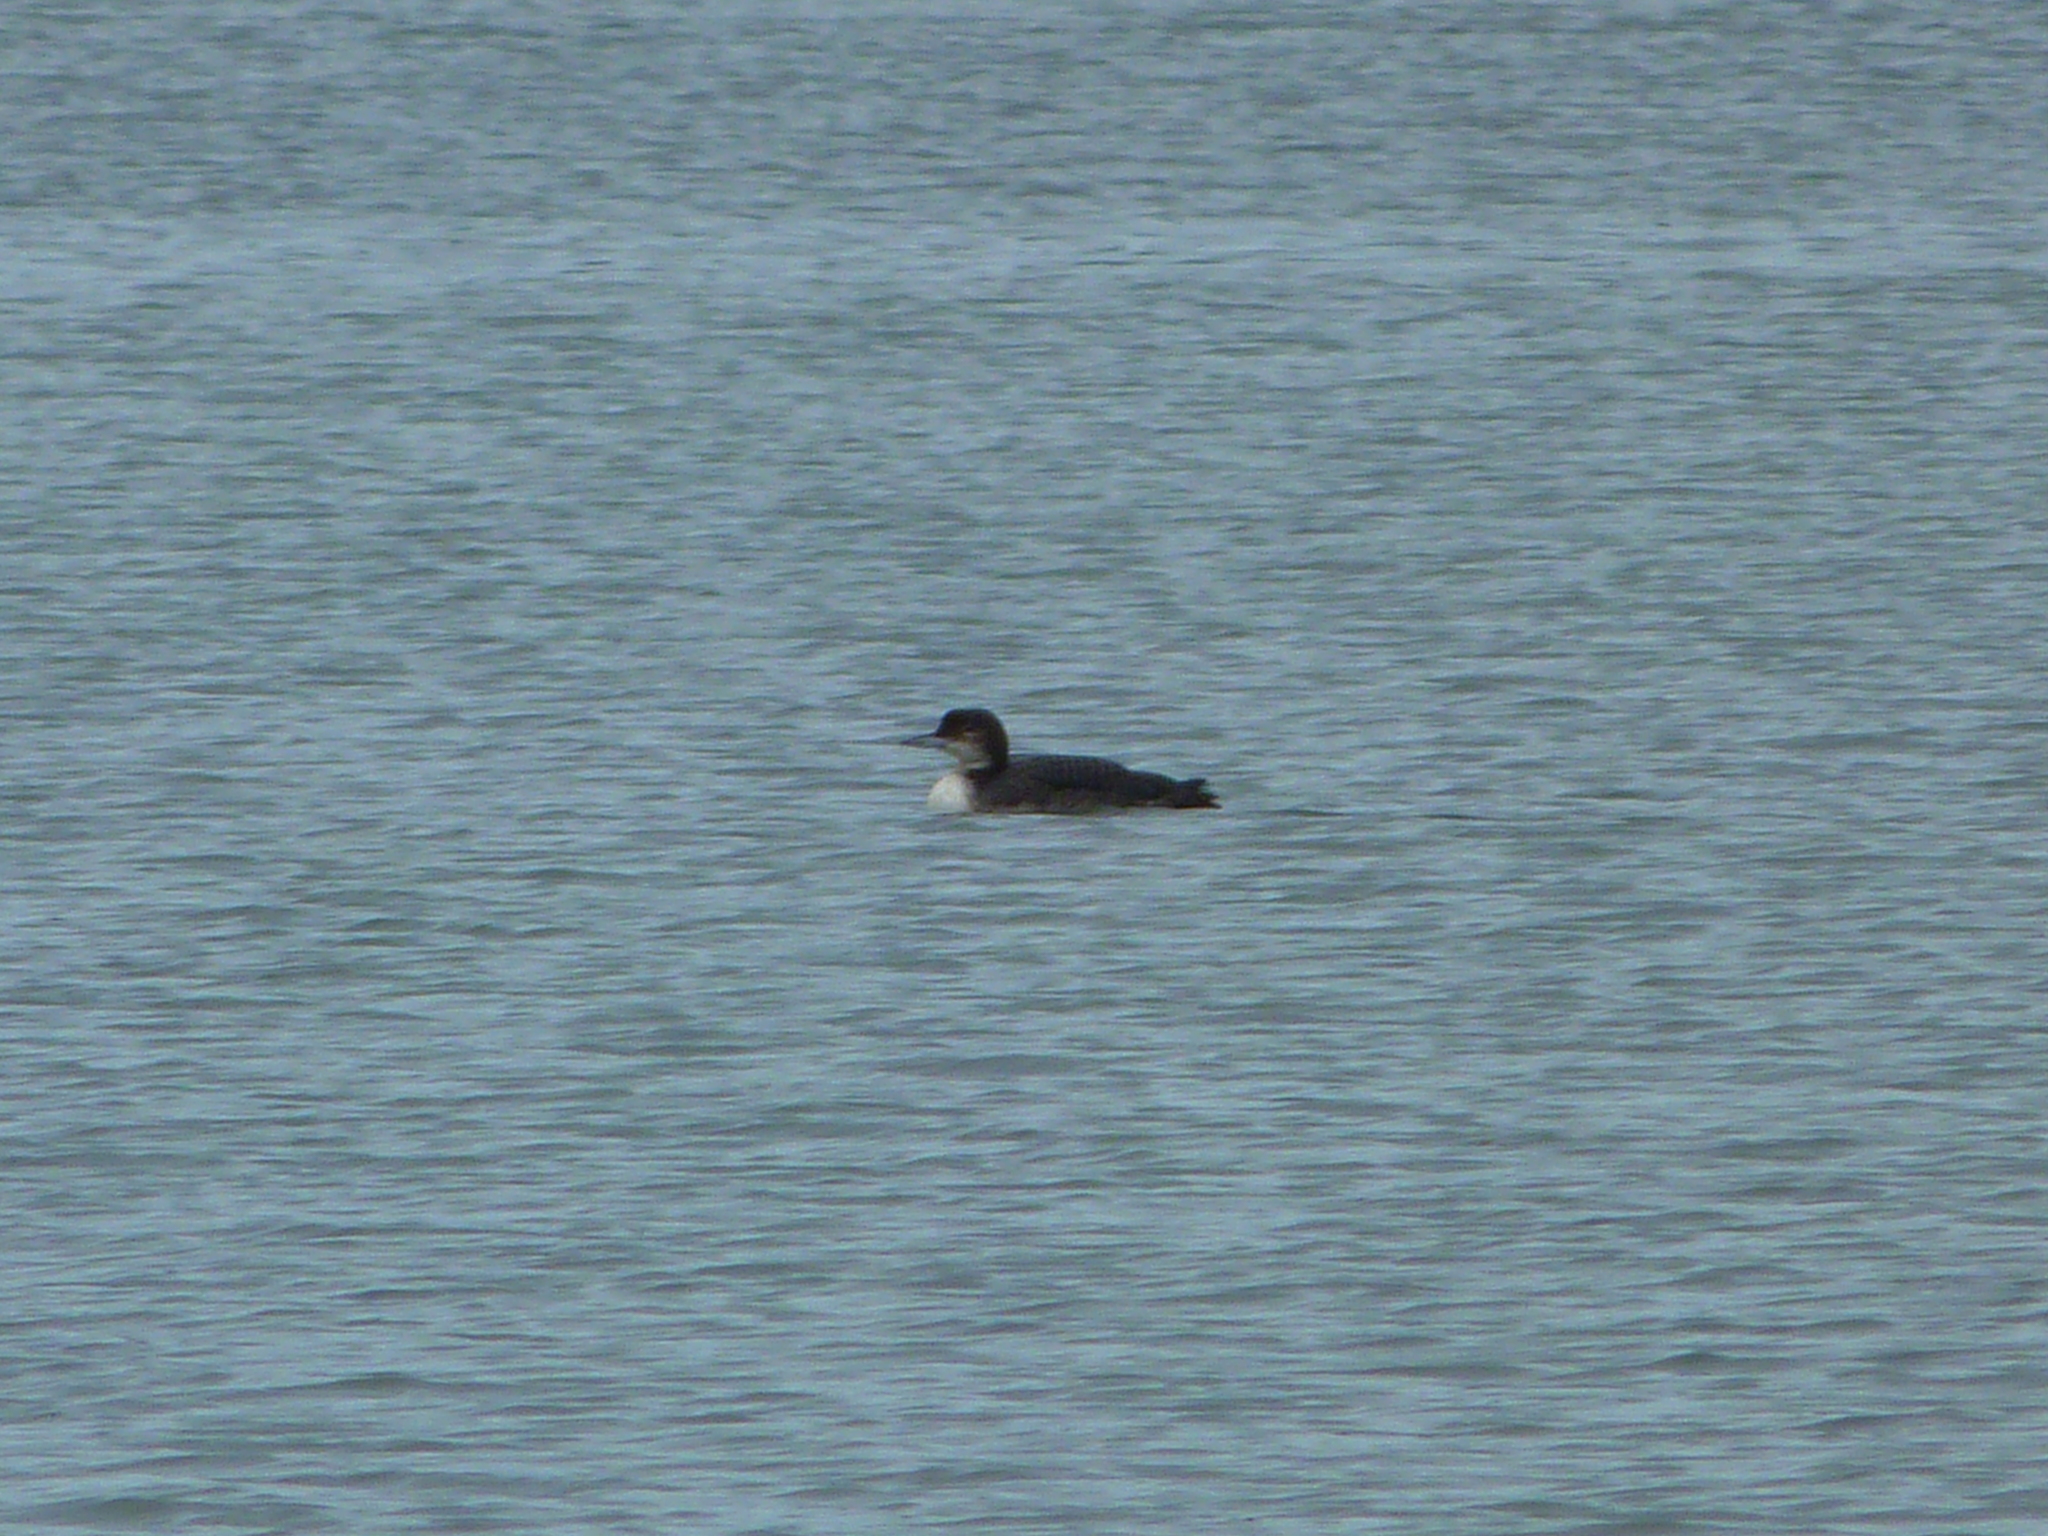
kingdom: Animalia
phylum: Chordata
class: Aves
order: Gaviiformes
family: Gaviidae
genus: Gavia
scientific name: Gavia immer
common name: Common loon
